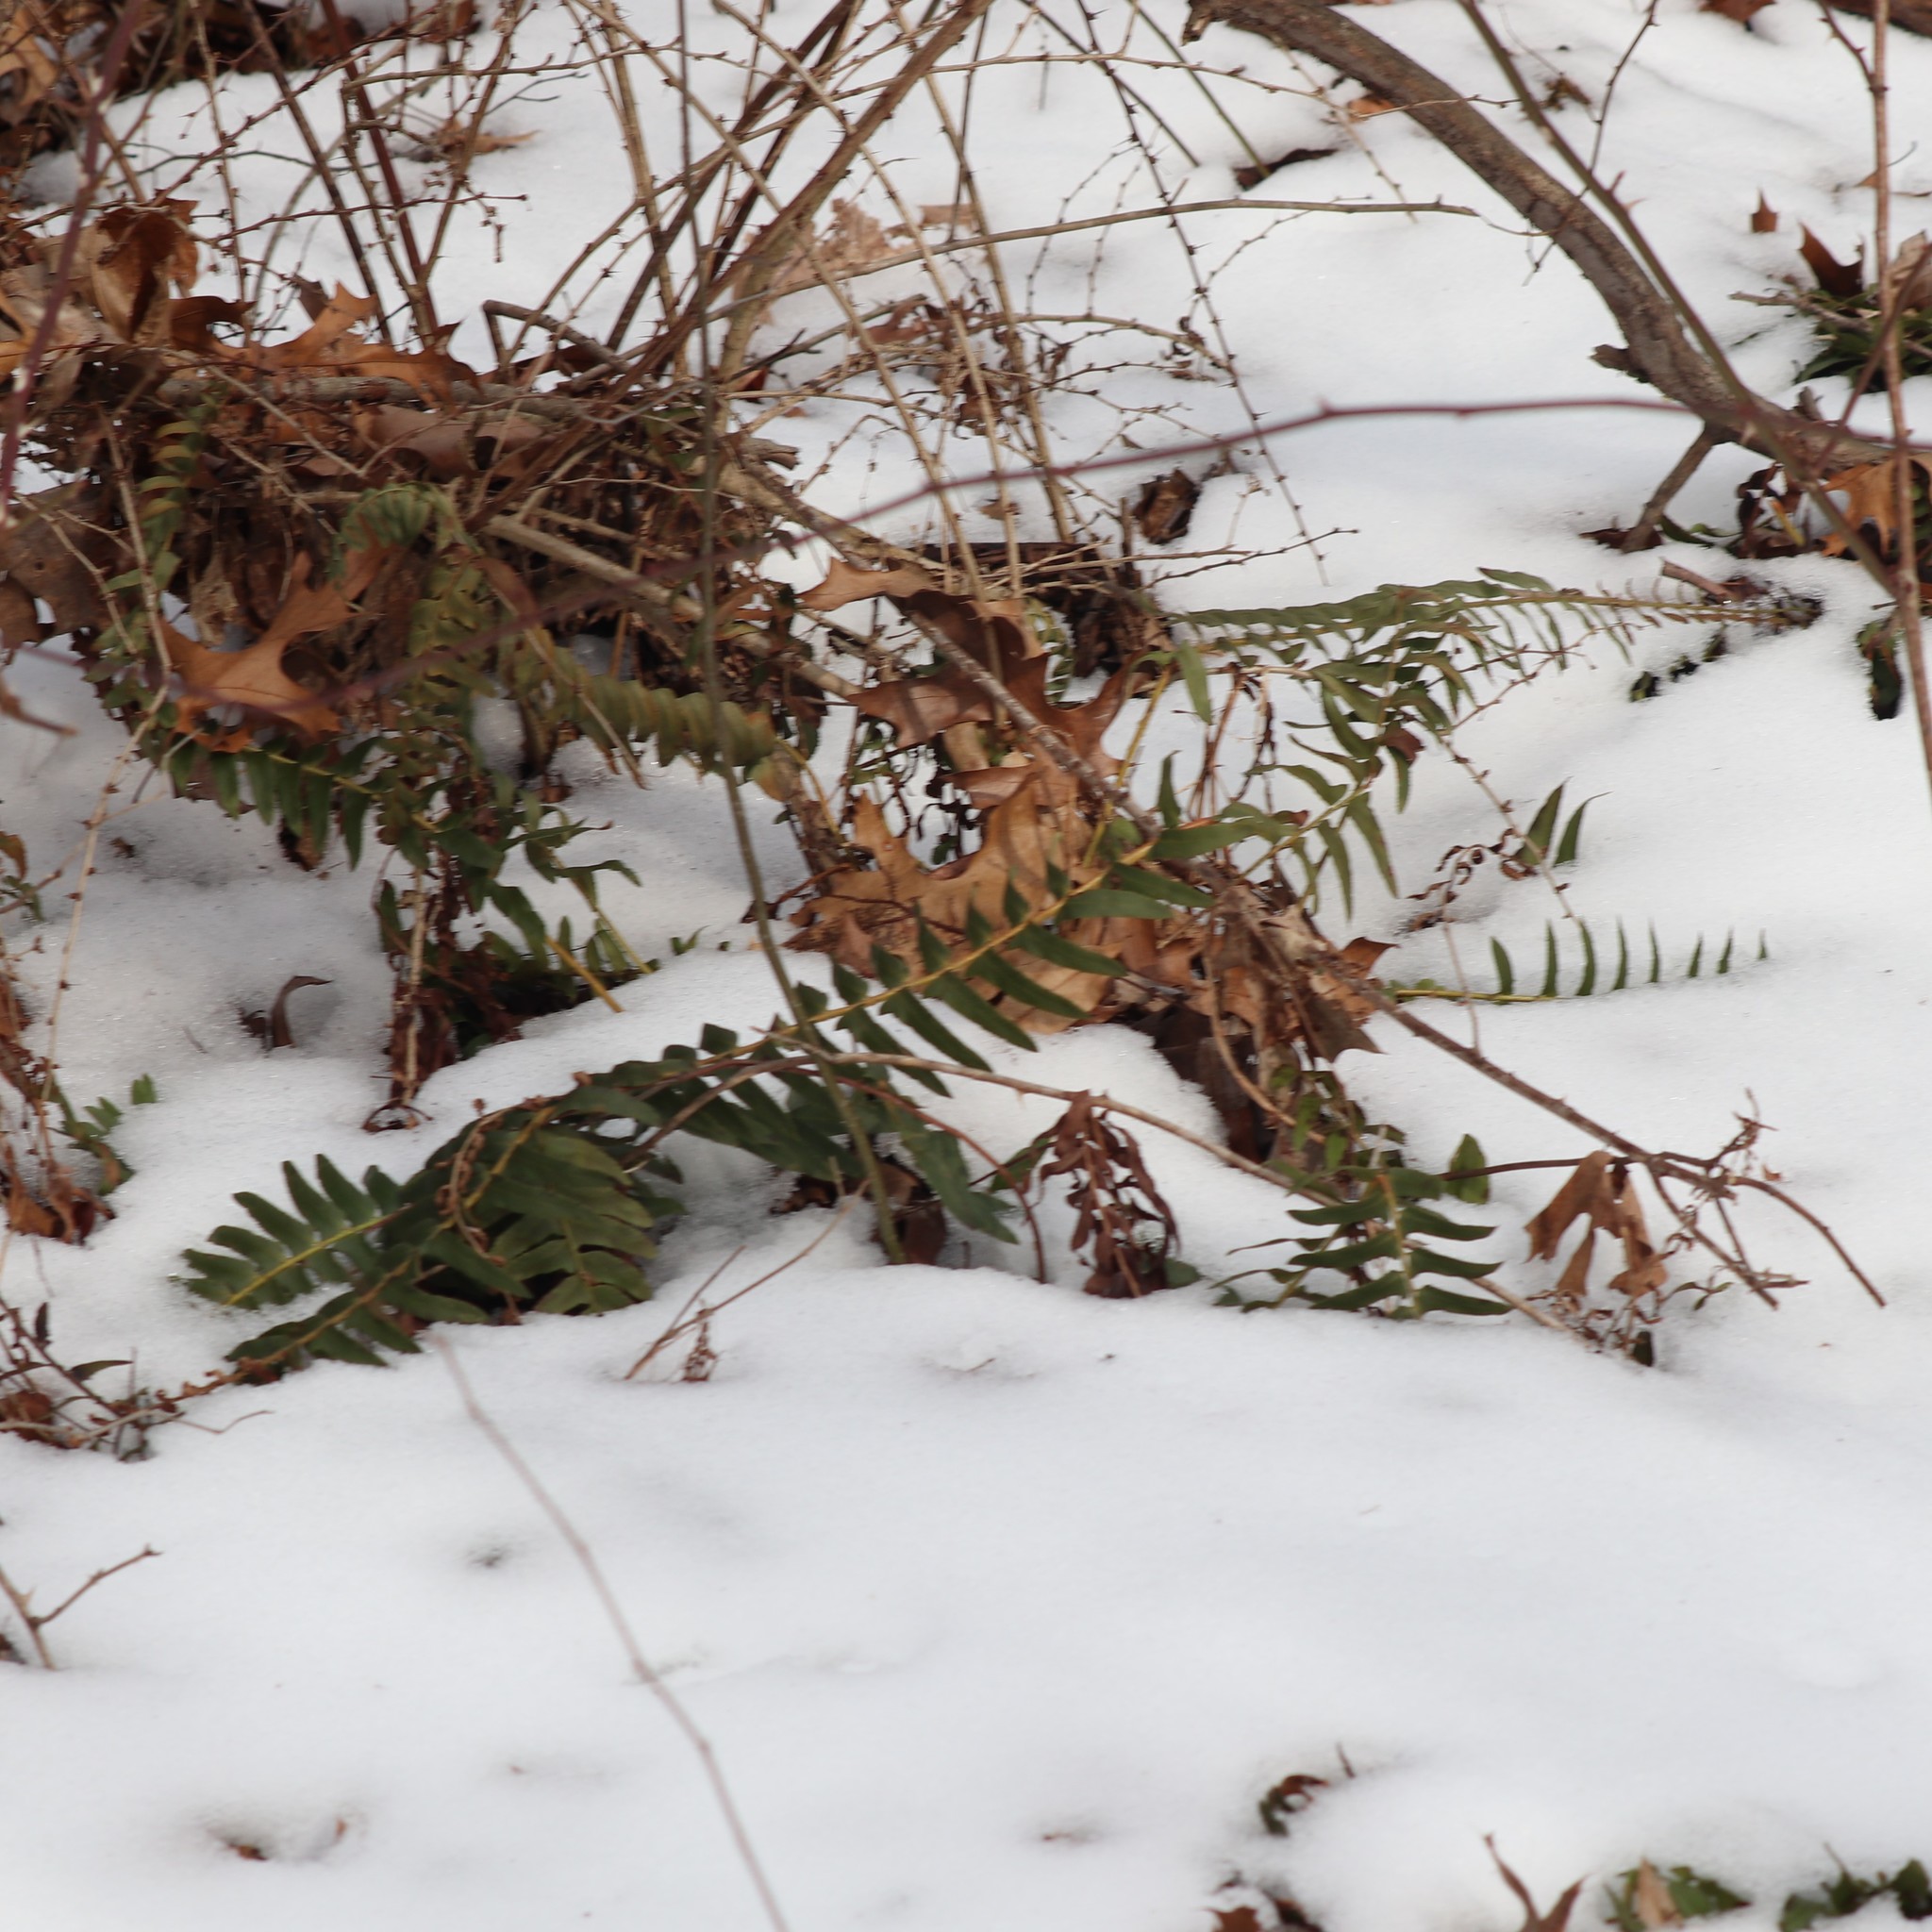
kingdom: Plantae
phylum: Tracheophyta
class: Polypodiopsida
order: Polypodiales
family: Dryopteridaceae
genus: Polystichum
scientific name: Polystichum acrostichoides
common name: Christmas fern
